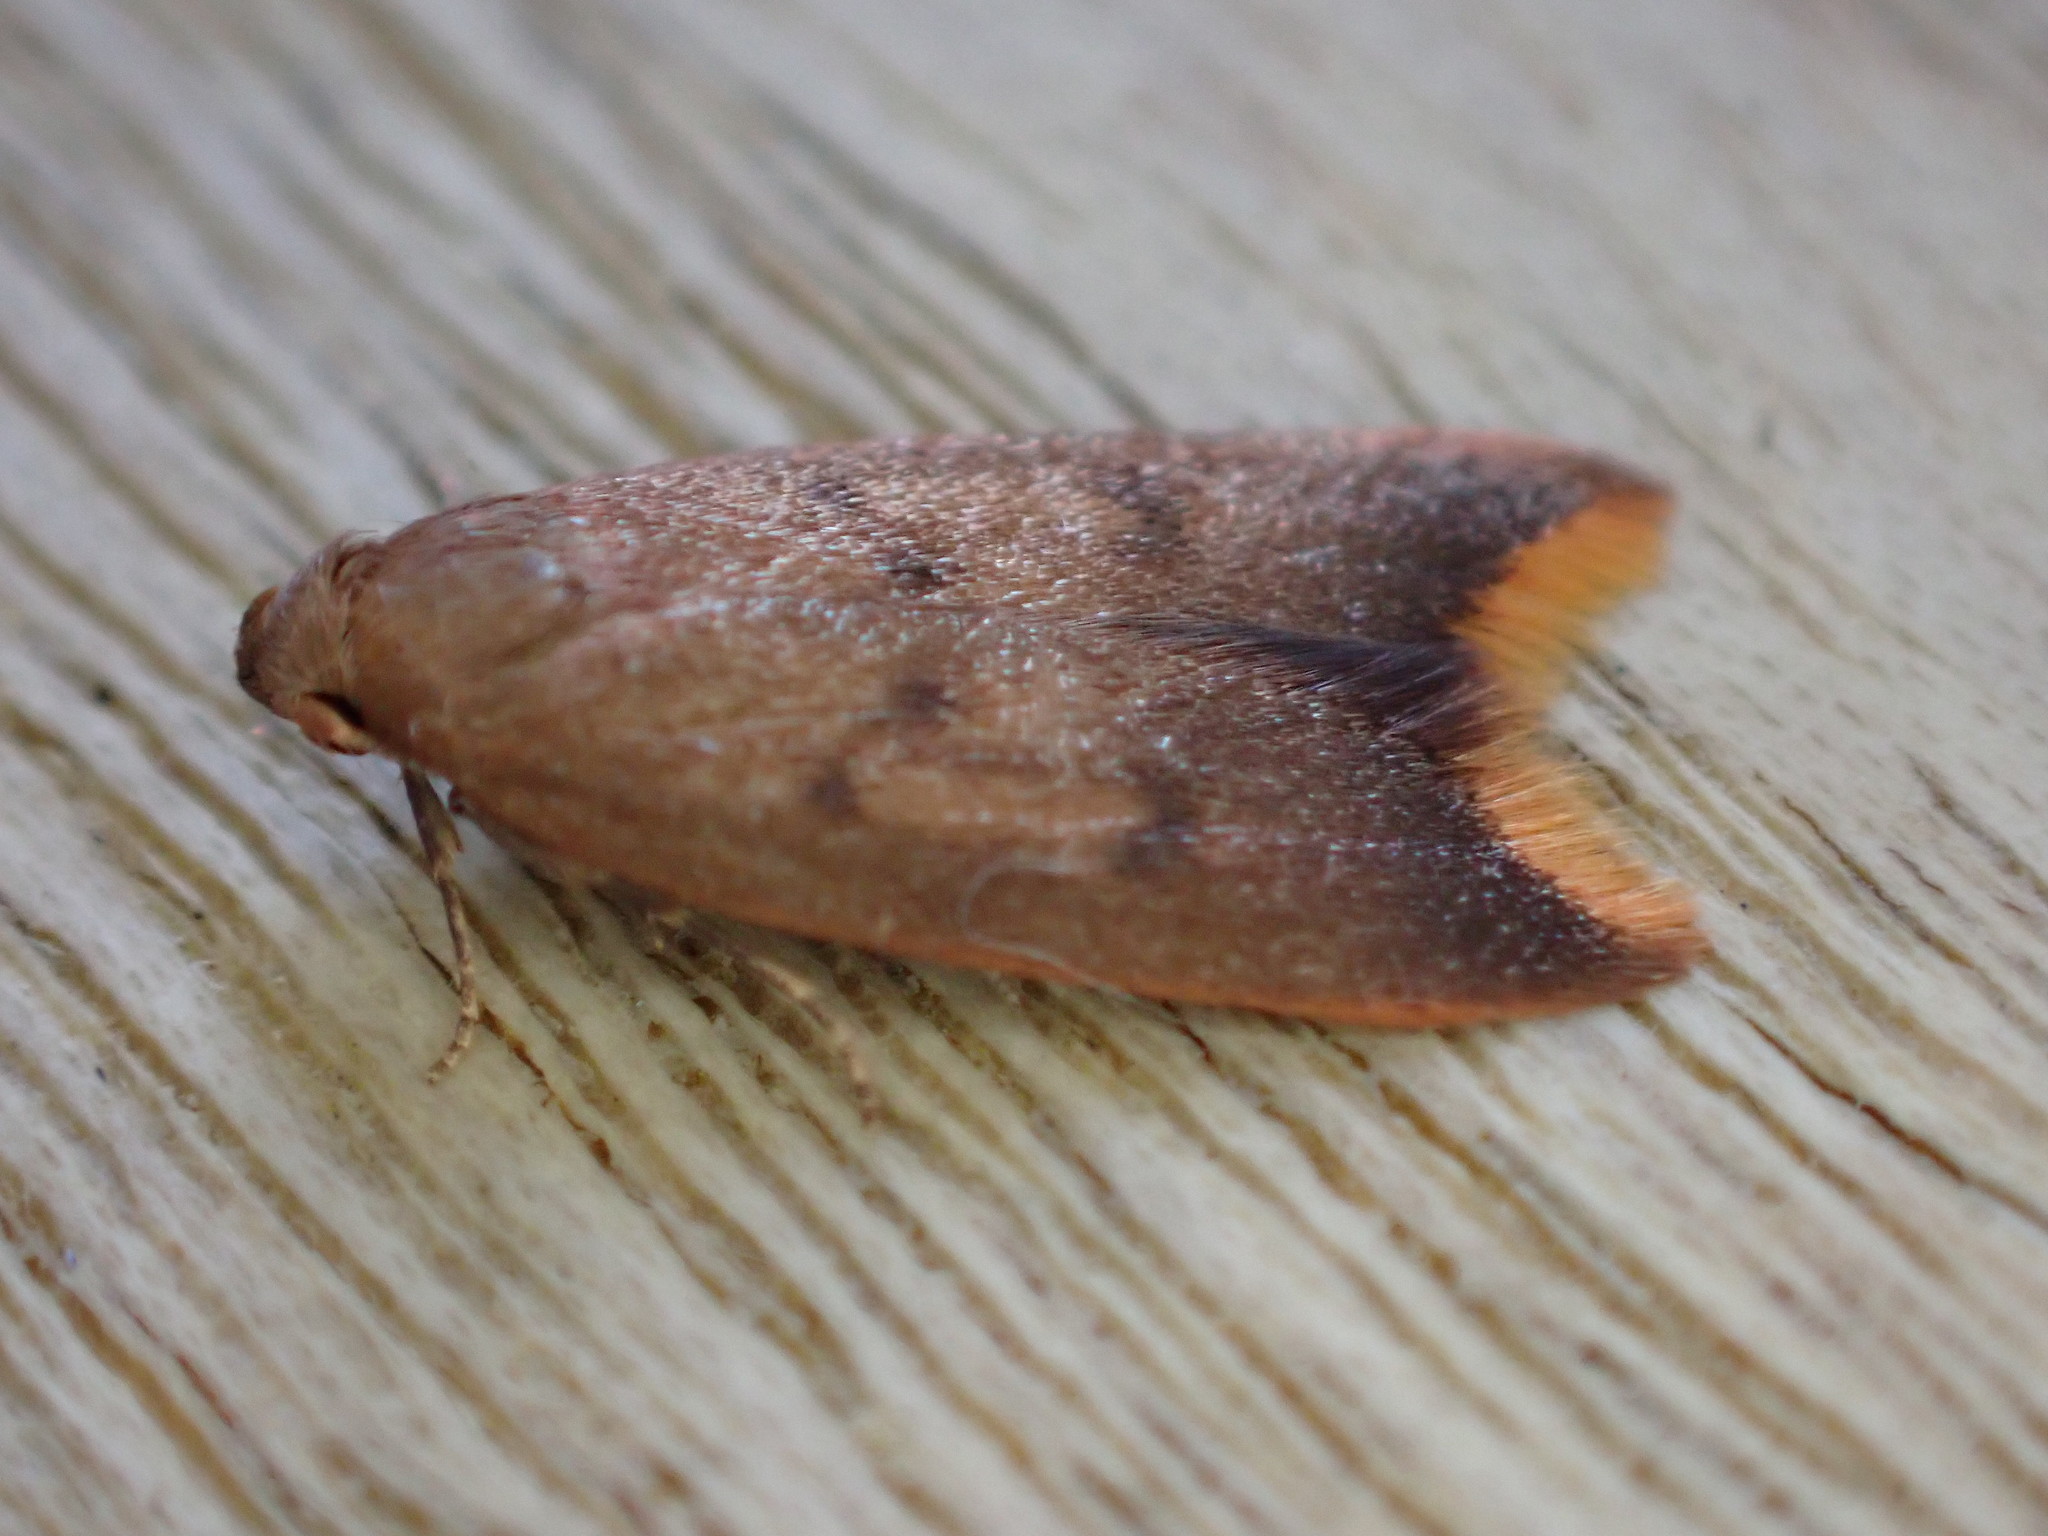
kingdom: Animalia
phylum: Arthropoda
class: Insecta
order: Lepidoptera
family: Oecophoridae
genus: Tachystola
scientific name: Tachystola acroxantha
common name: Ruddy streak
